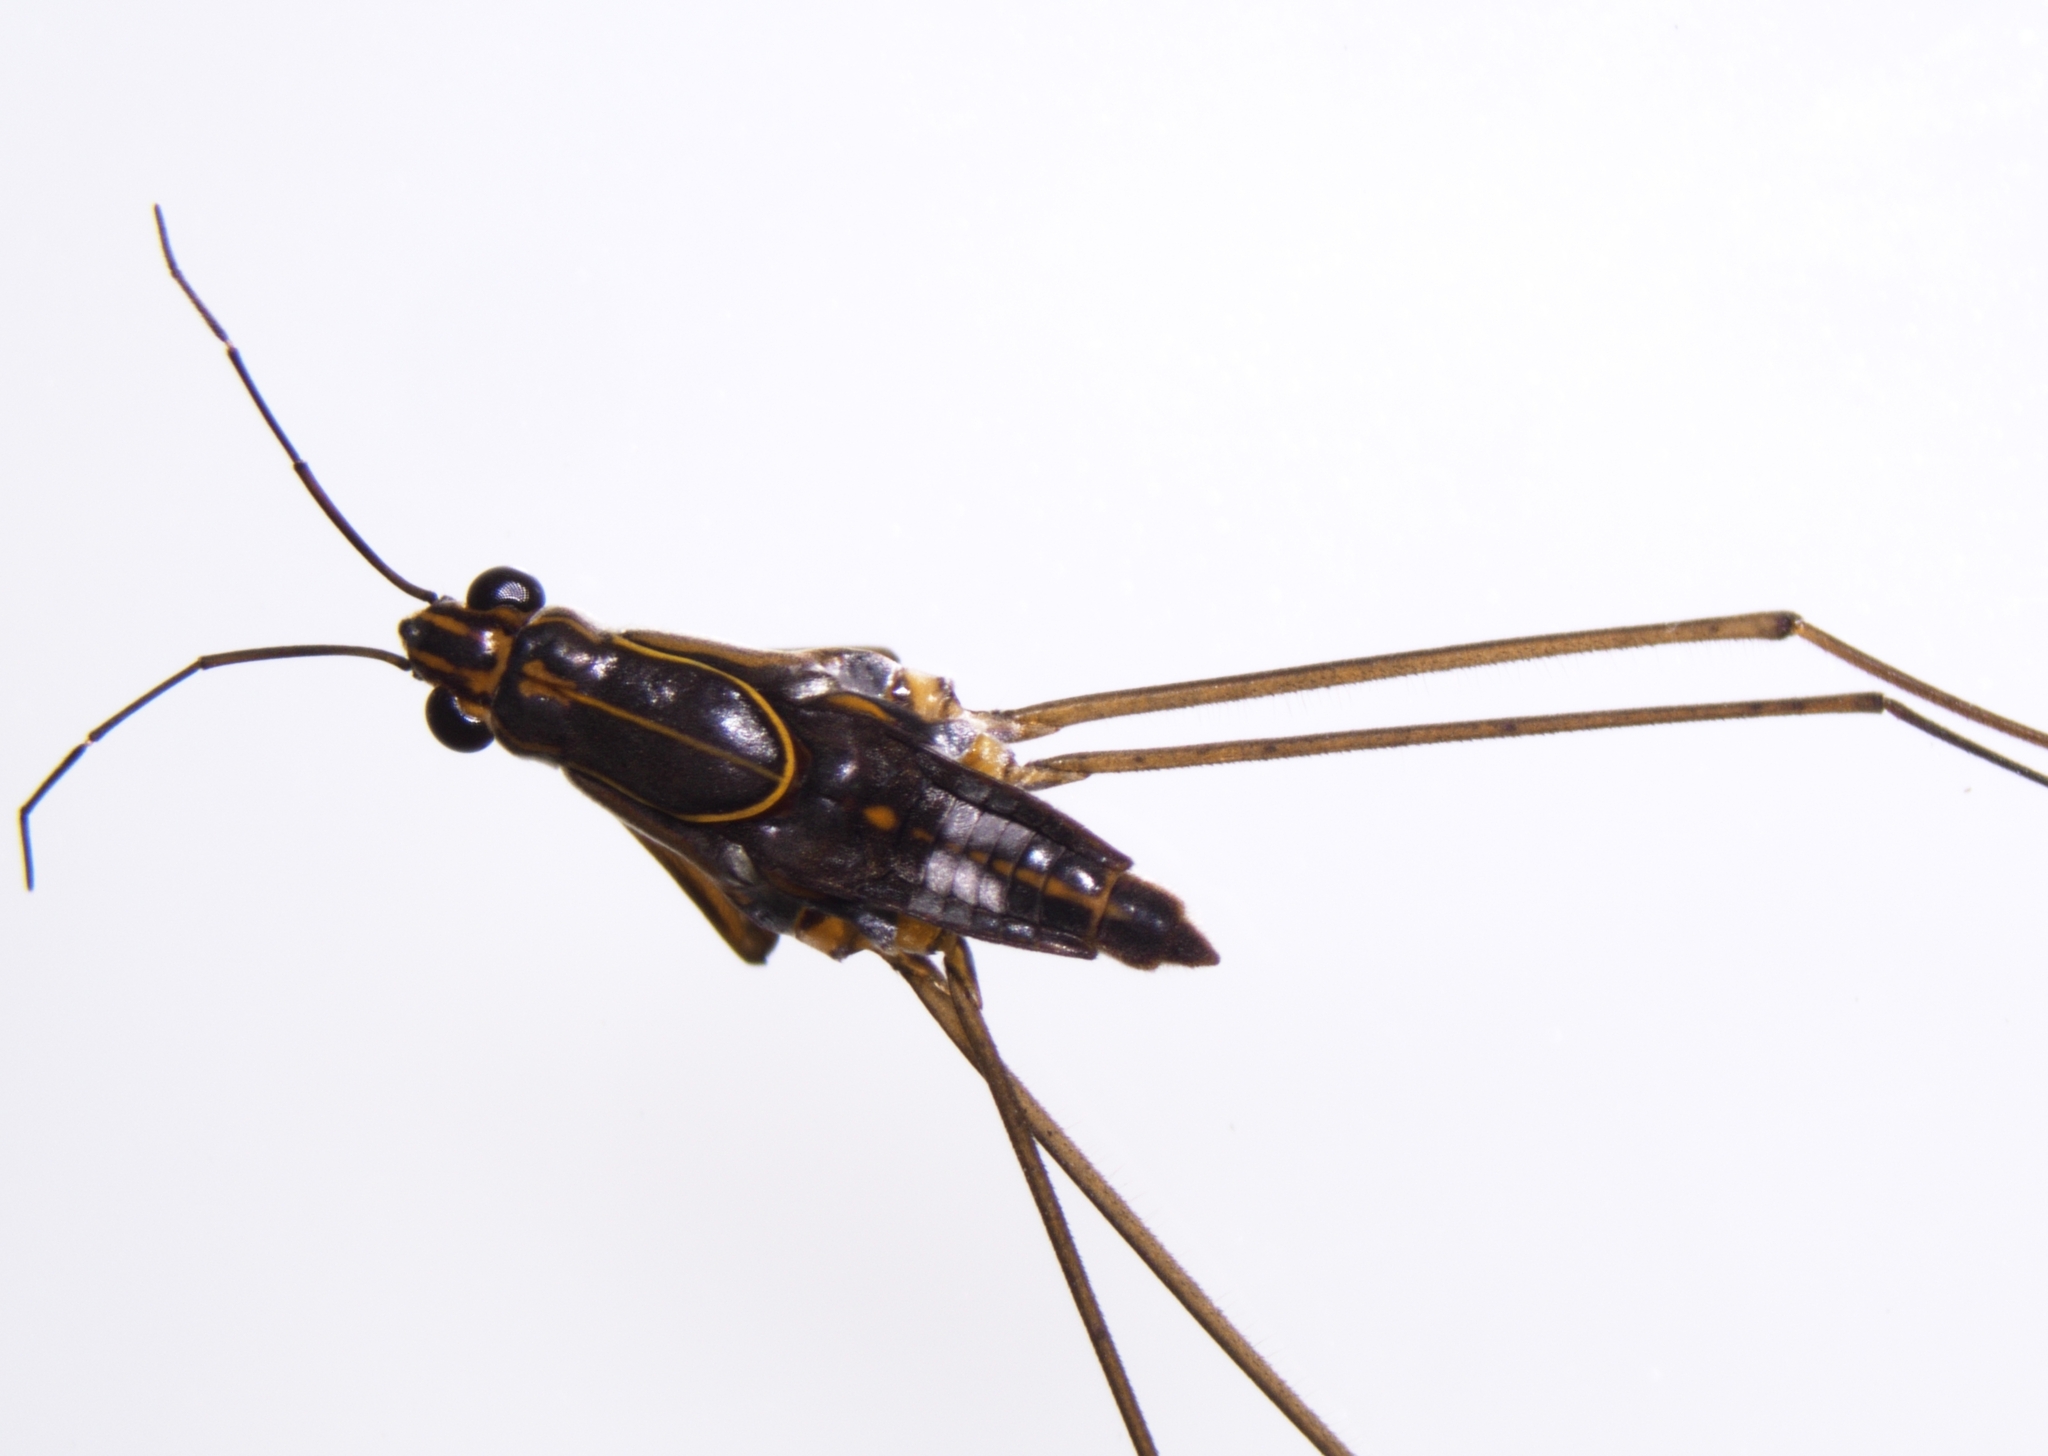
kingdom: Animalia
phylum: Arthropoda
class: Insecta
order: Hemiptera
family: Gerridae
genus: Limnogonus
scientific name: Limnogonus fossarum
